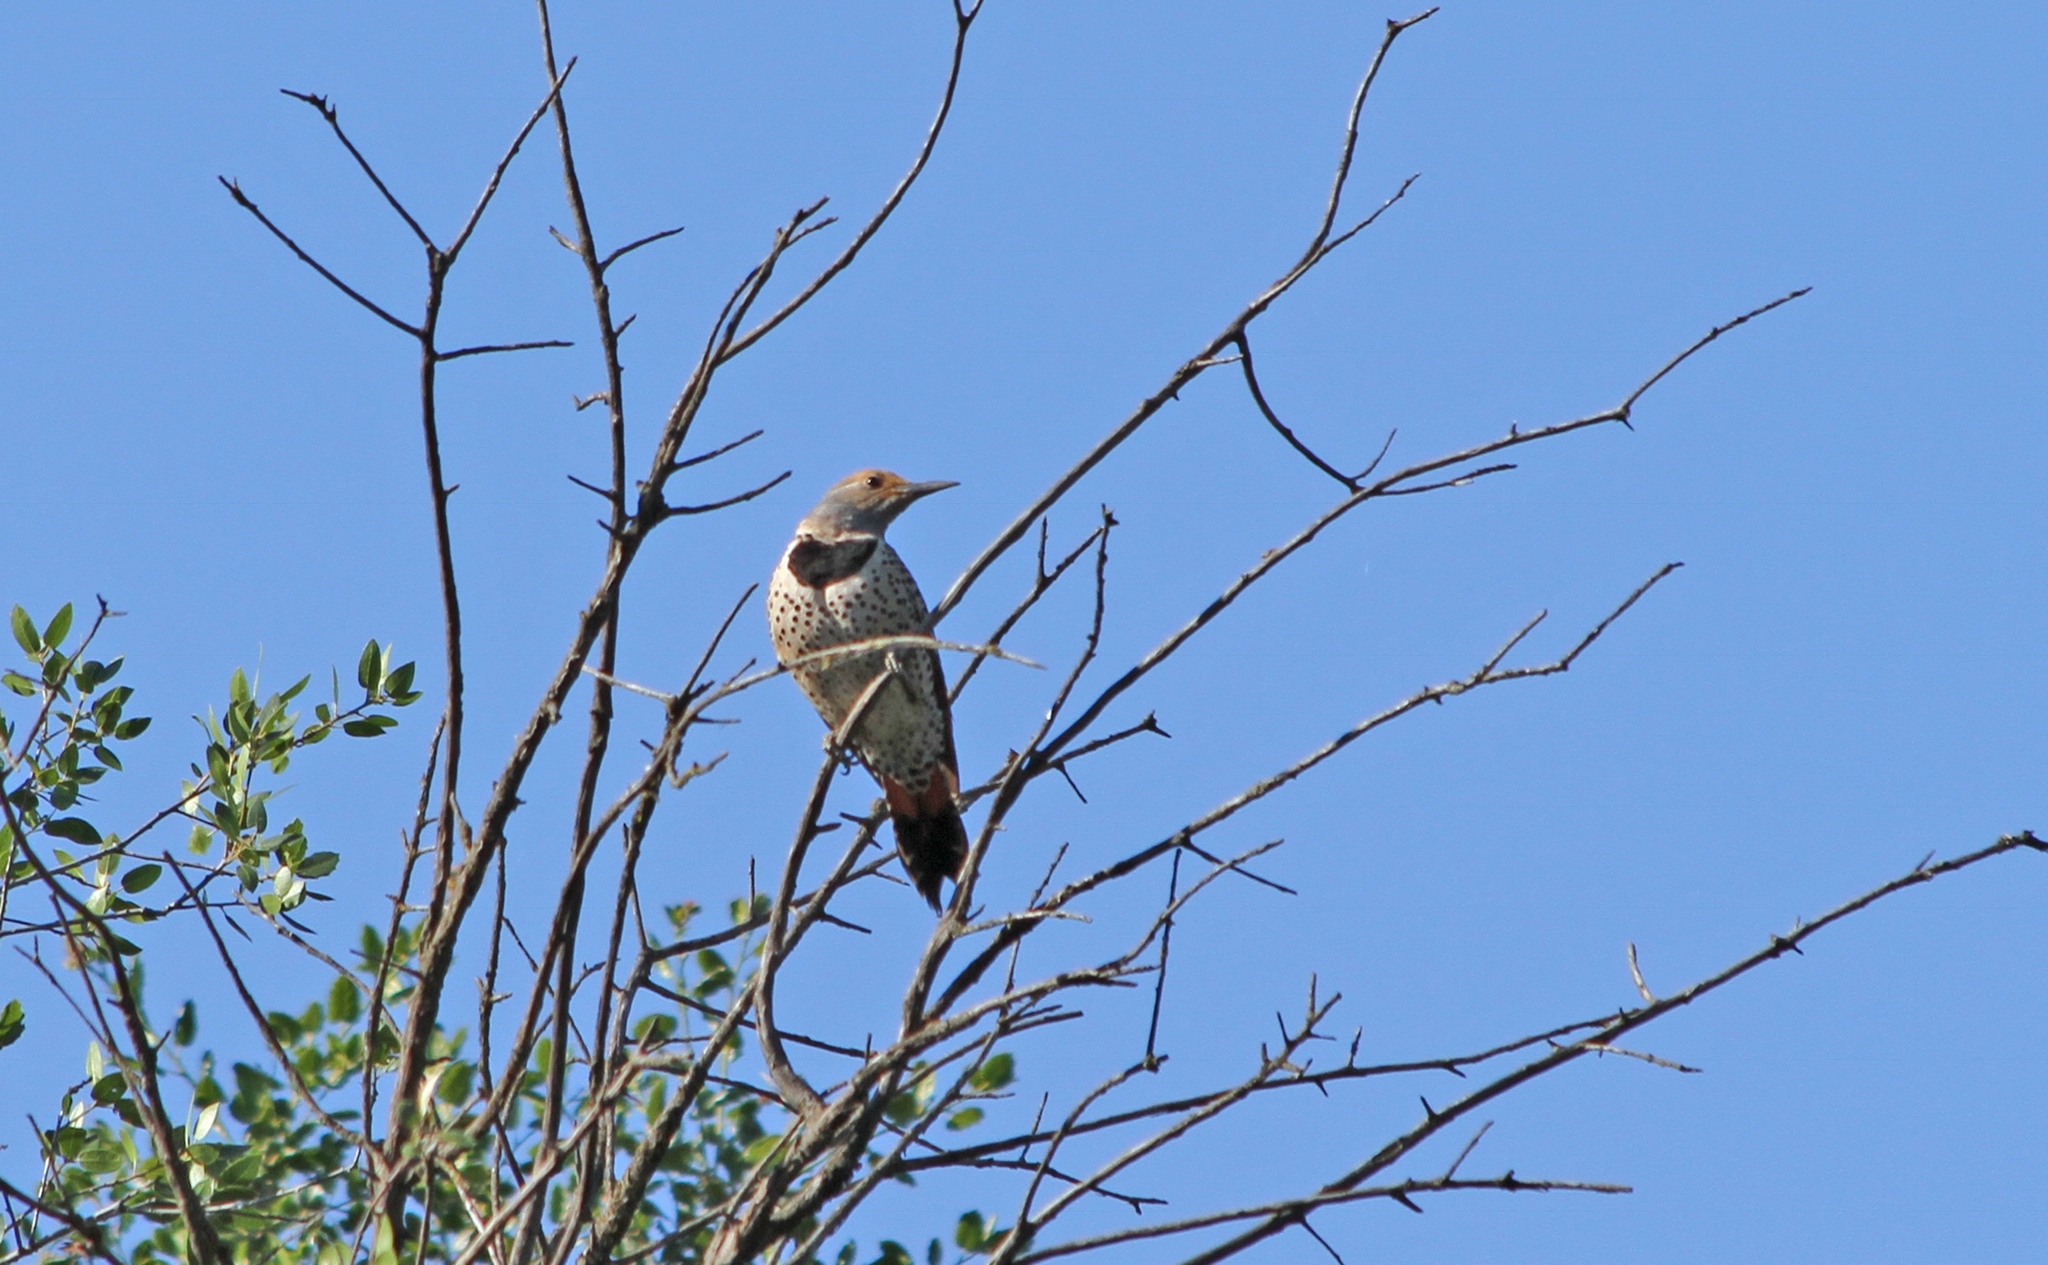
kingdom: Animalia
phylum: Chordata
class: Aves
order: Piciformes
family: Picidae
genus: Colaptes
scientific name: Colaptes auratus
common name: Northern flicker
